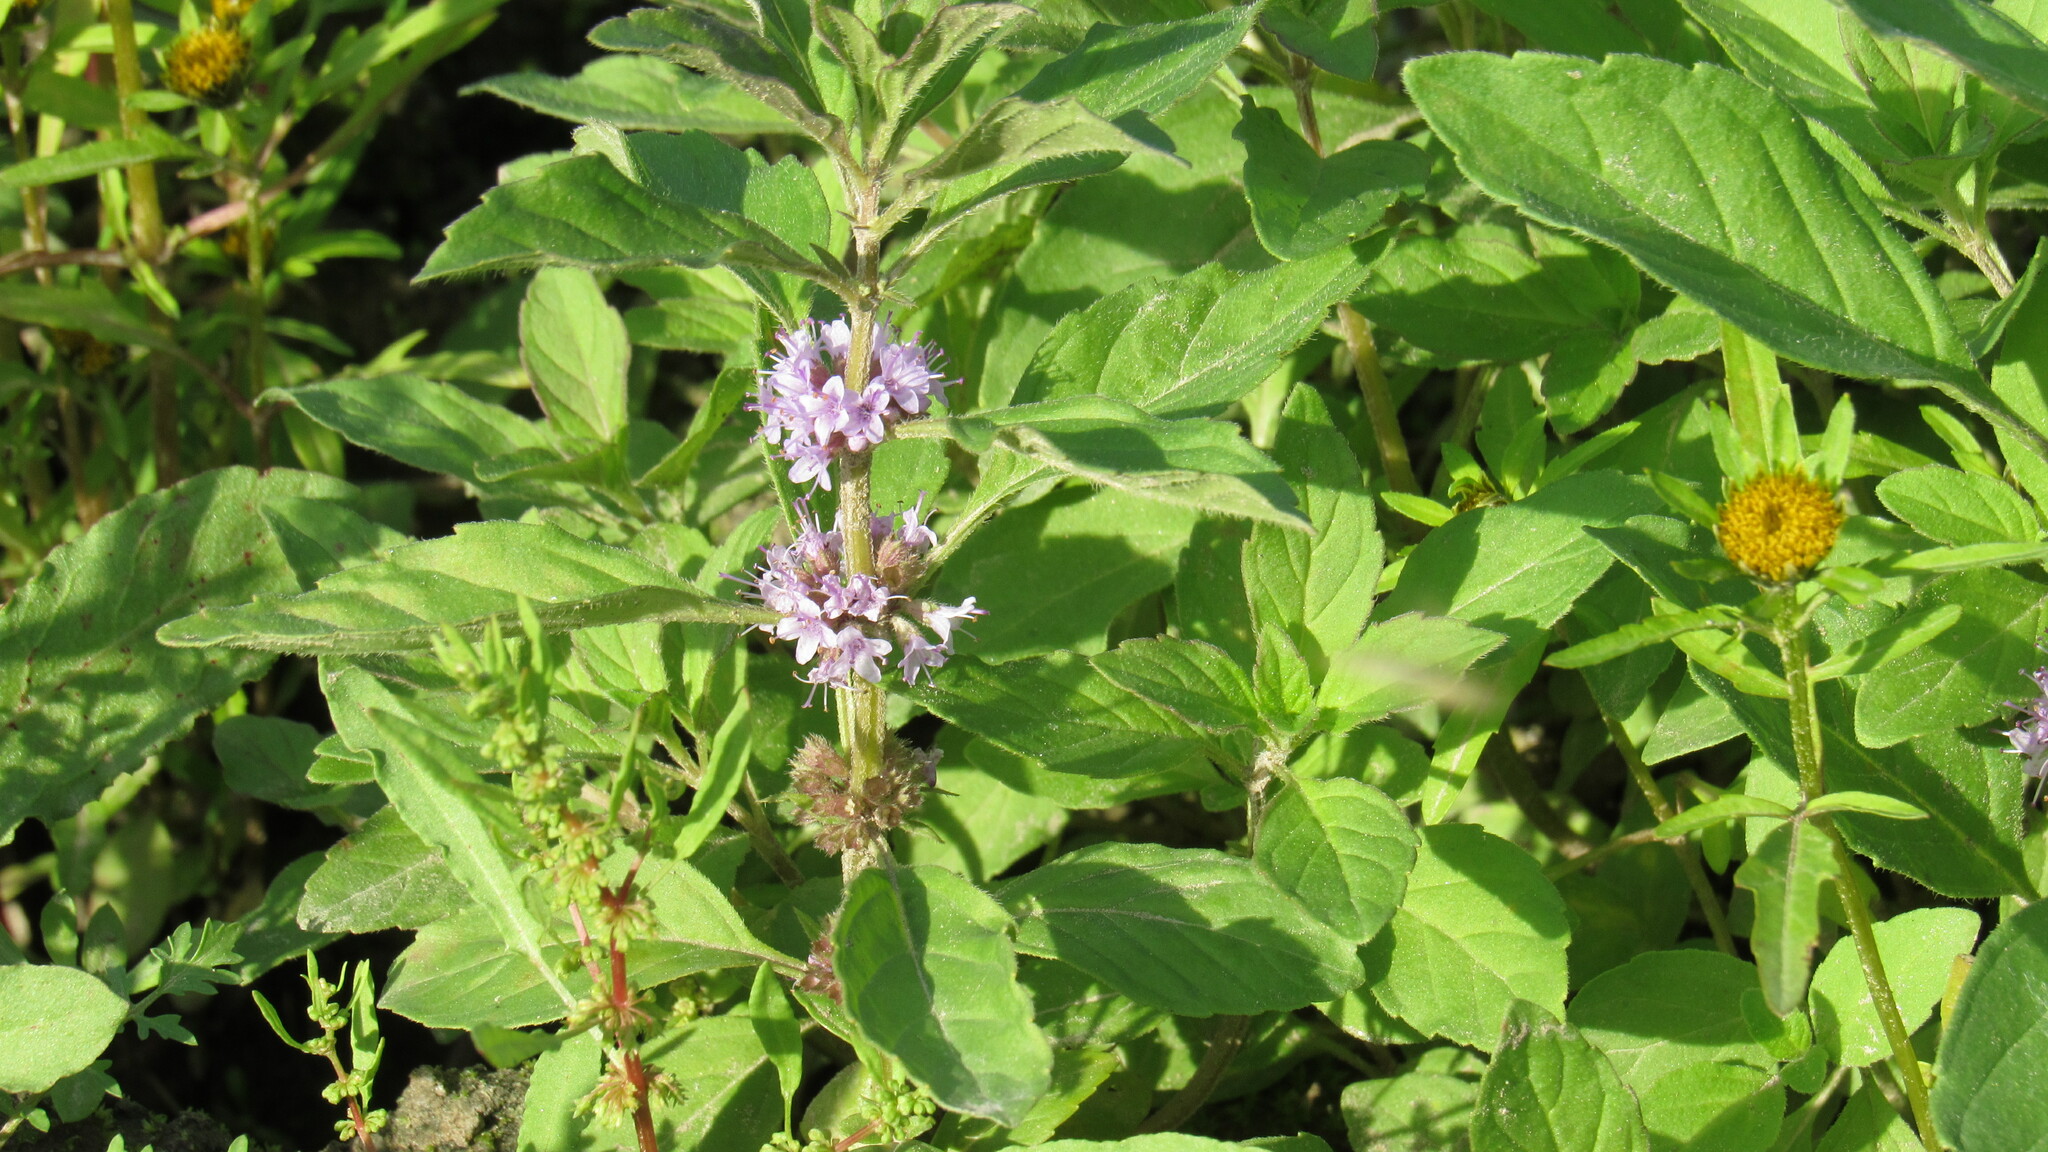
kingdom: Plantae
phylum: Tracheophyta
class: Magnoliopsida
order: Lamiales
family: Lamiaceae
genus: Mentha
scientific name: Mentha arvensis
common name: Corn mint
